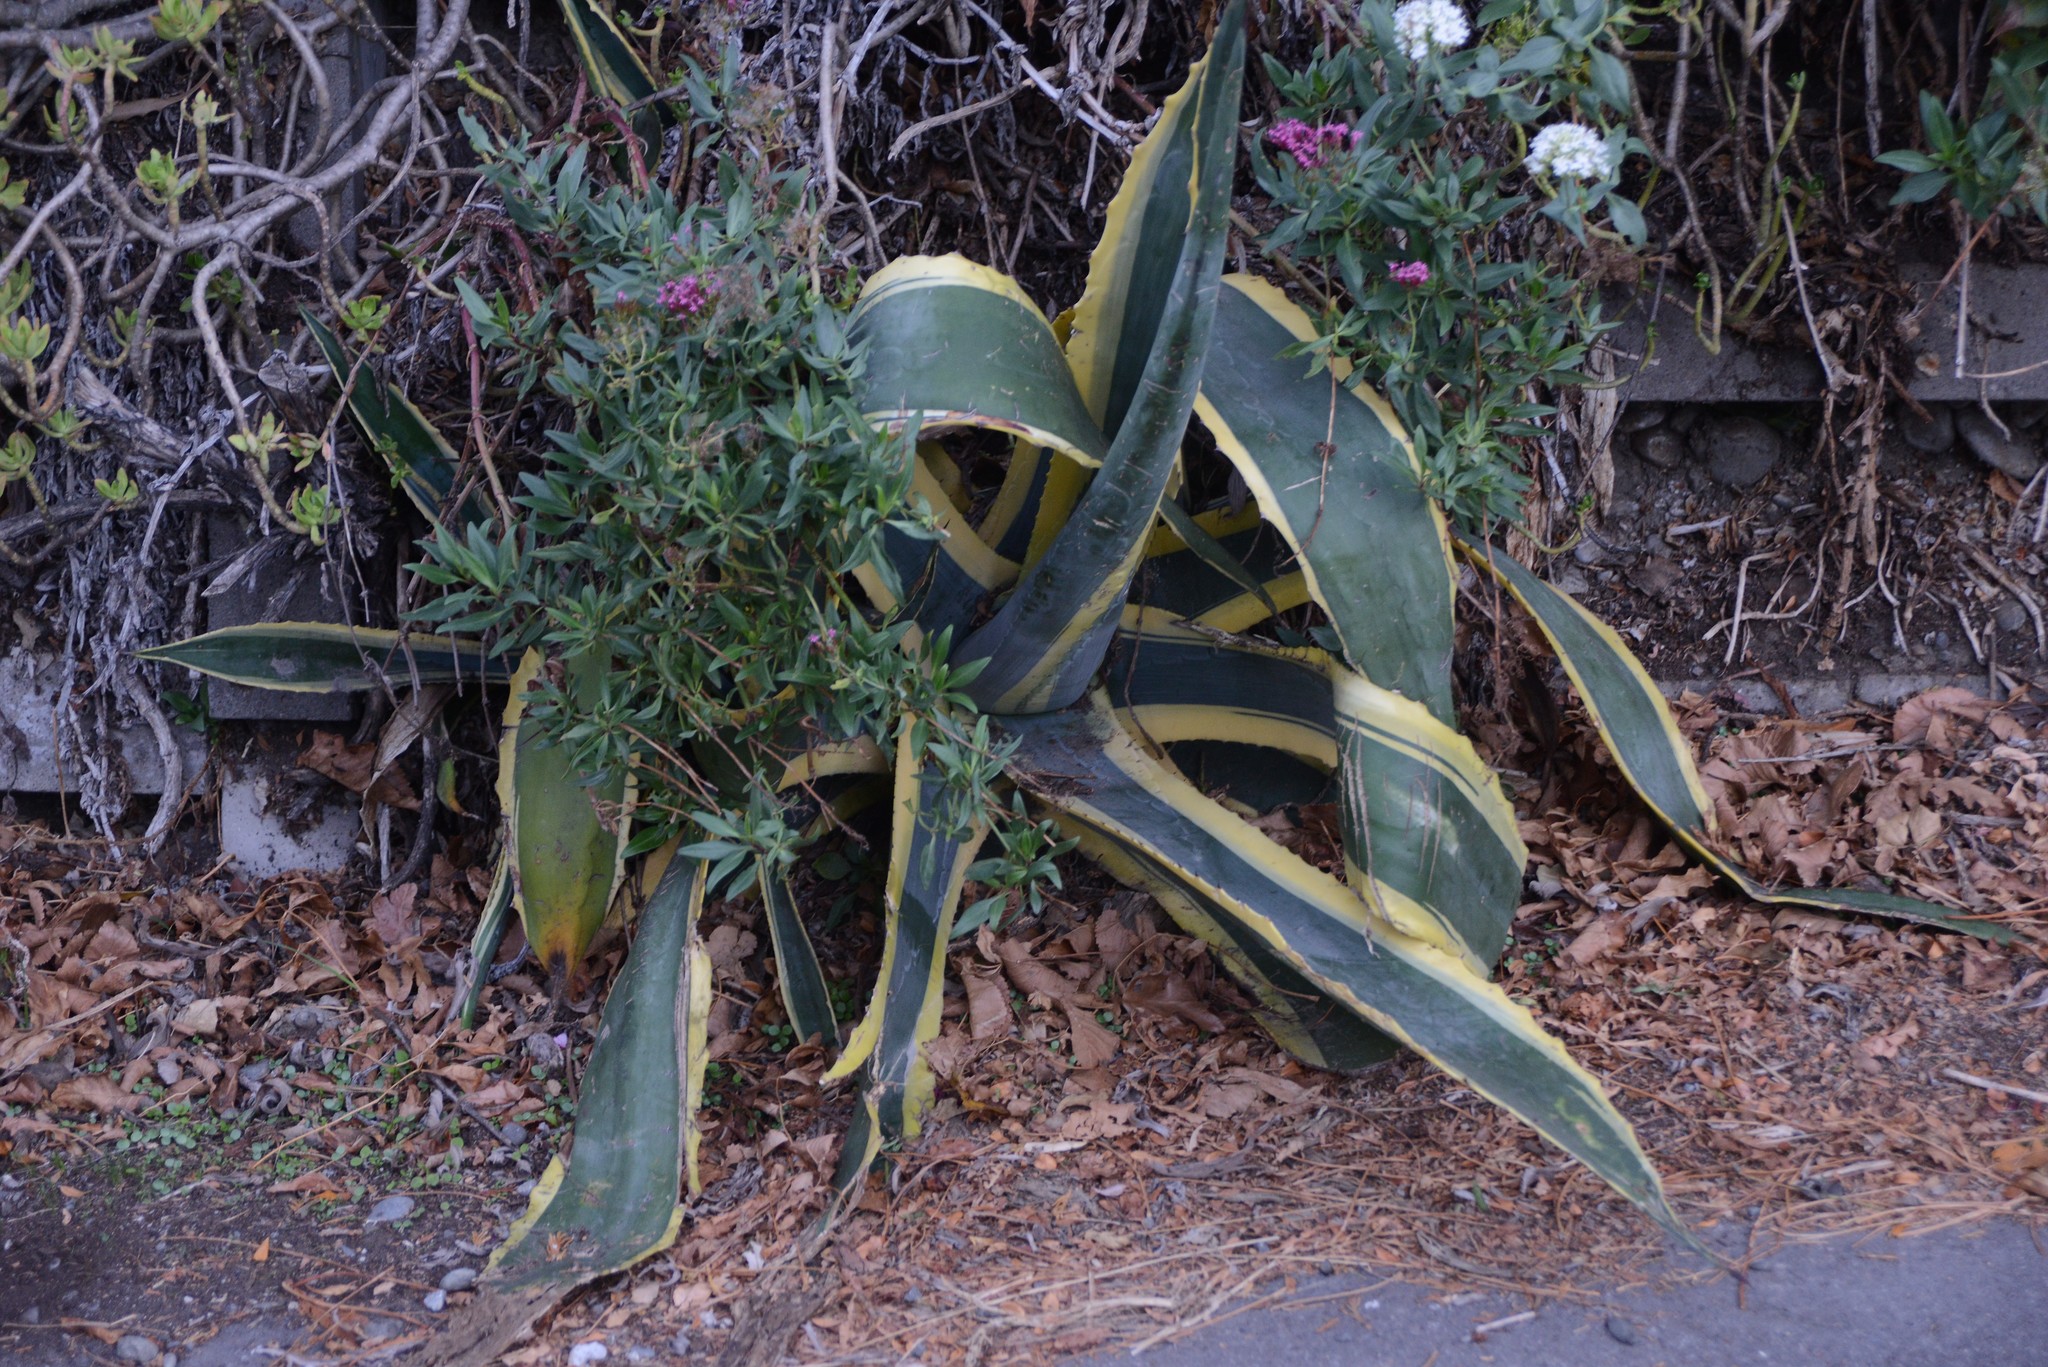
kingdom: Plantae
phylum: Tracheophyta
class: Liliopsida
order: Asparagales
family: Asparagaceae
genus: Agave
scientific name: Agave americana
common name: Centuryplant
